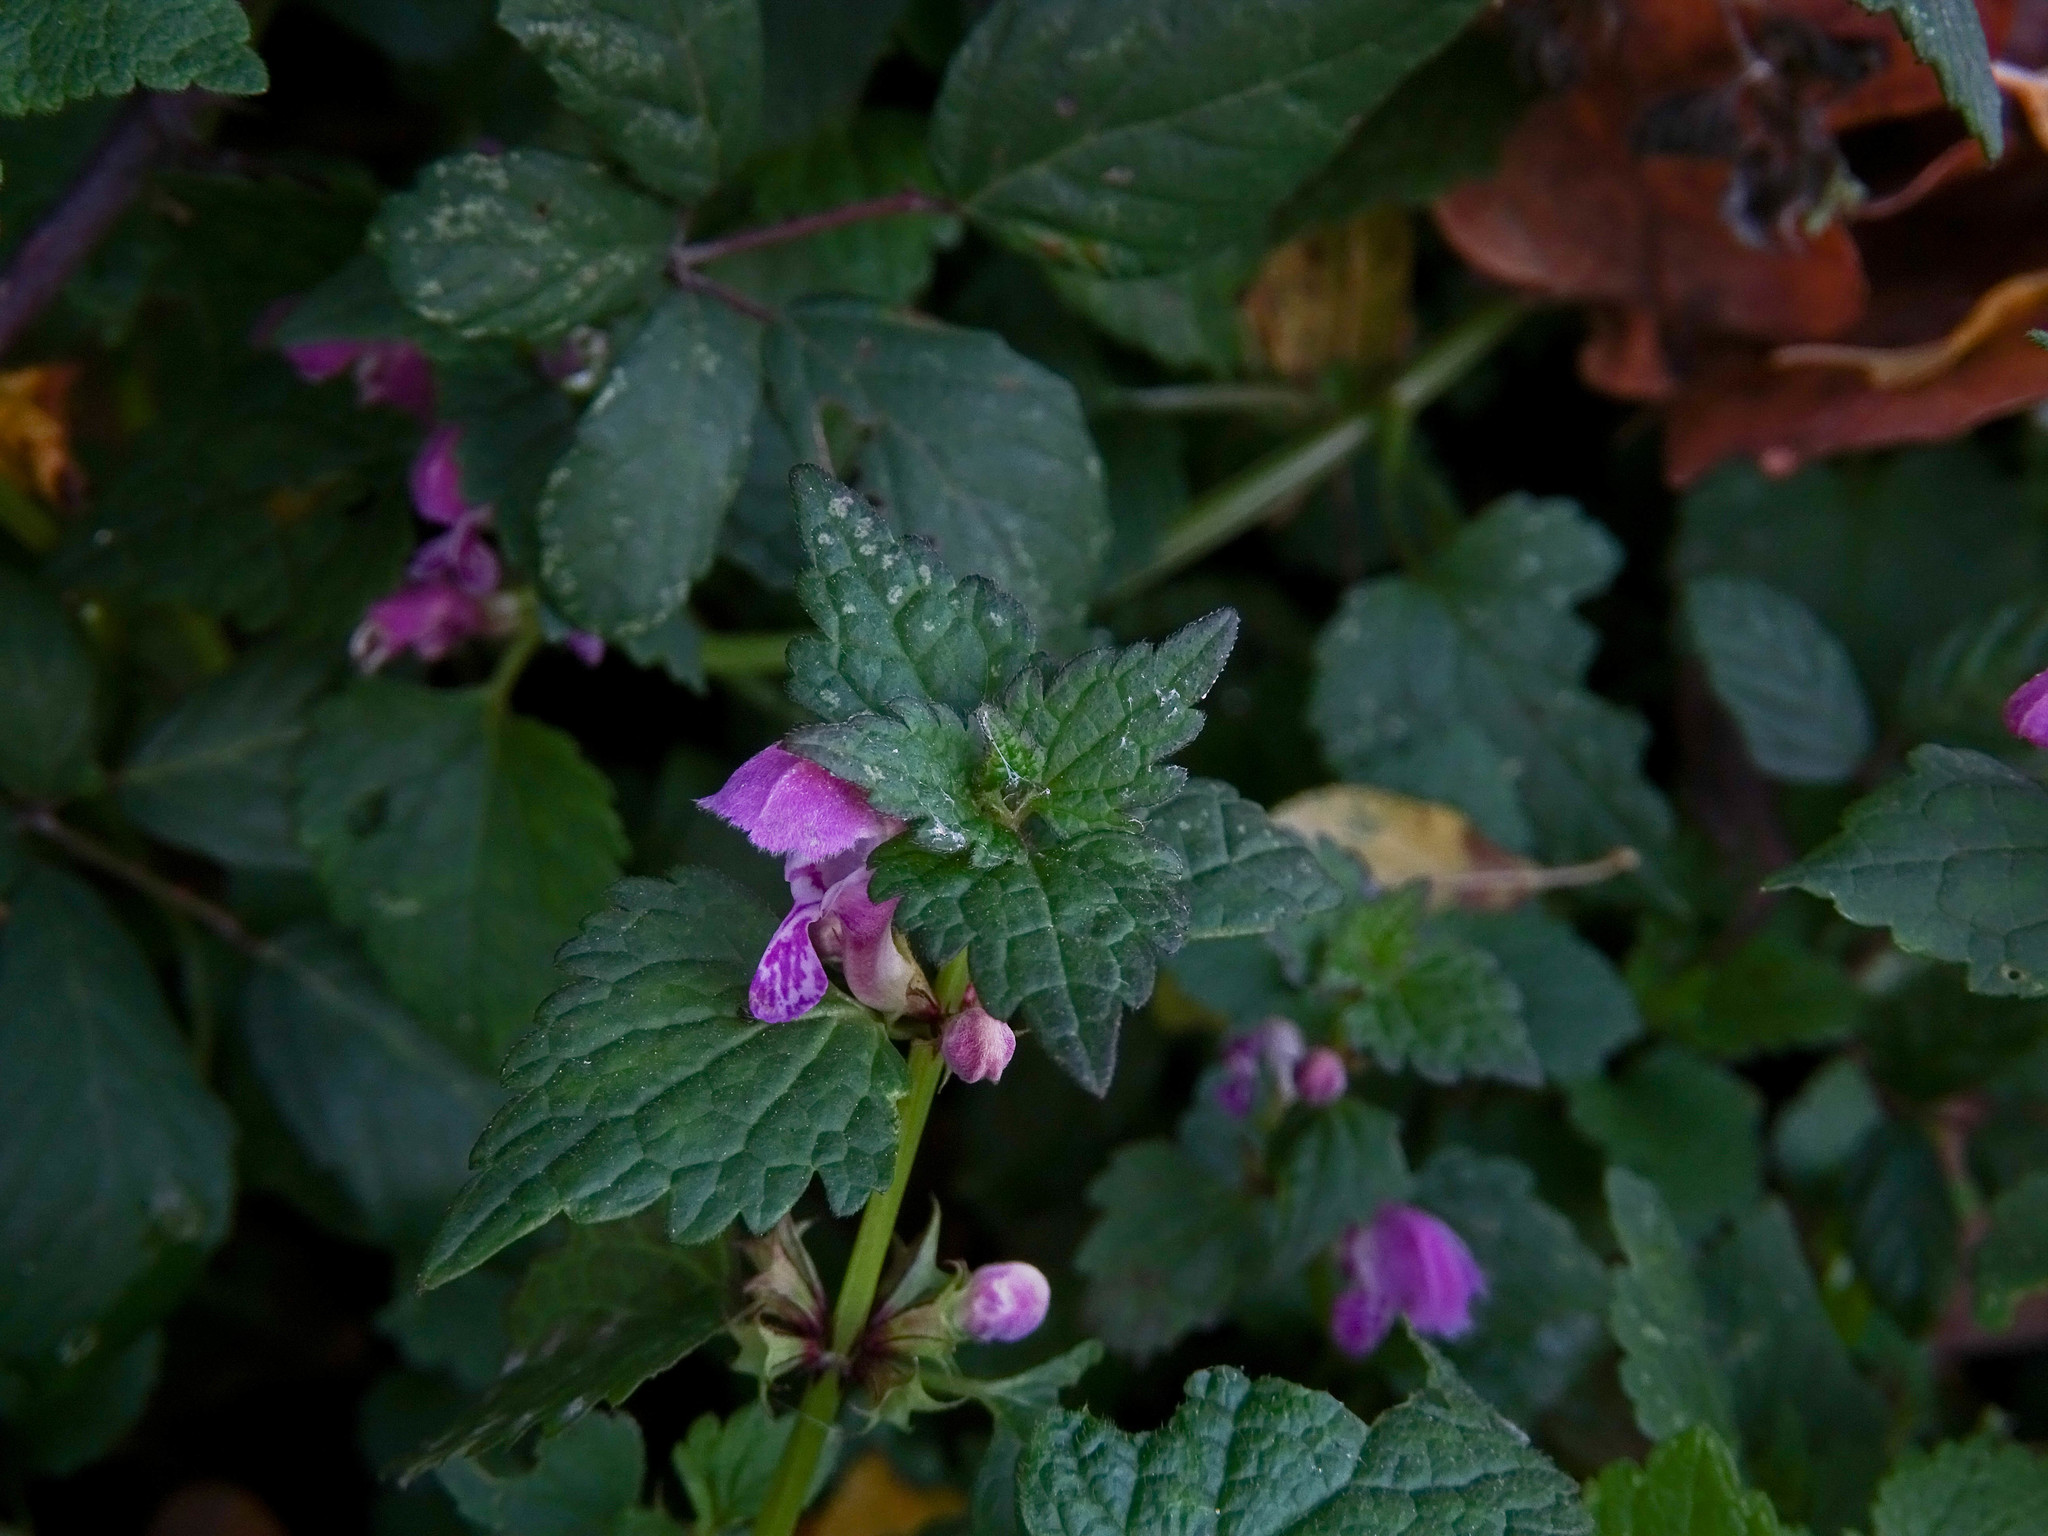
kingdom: Plantae
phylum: Tracheophyta
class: Magnoliopsida
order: Lamiales
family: Lamiaceae
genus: Lamium
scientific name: Lamium maculatum
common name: Spotted dead-nettle
